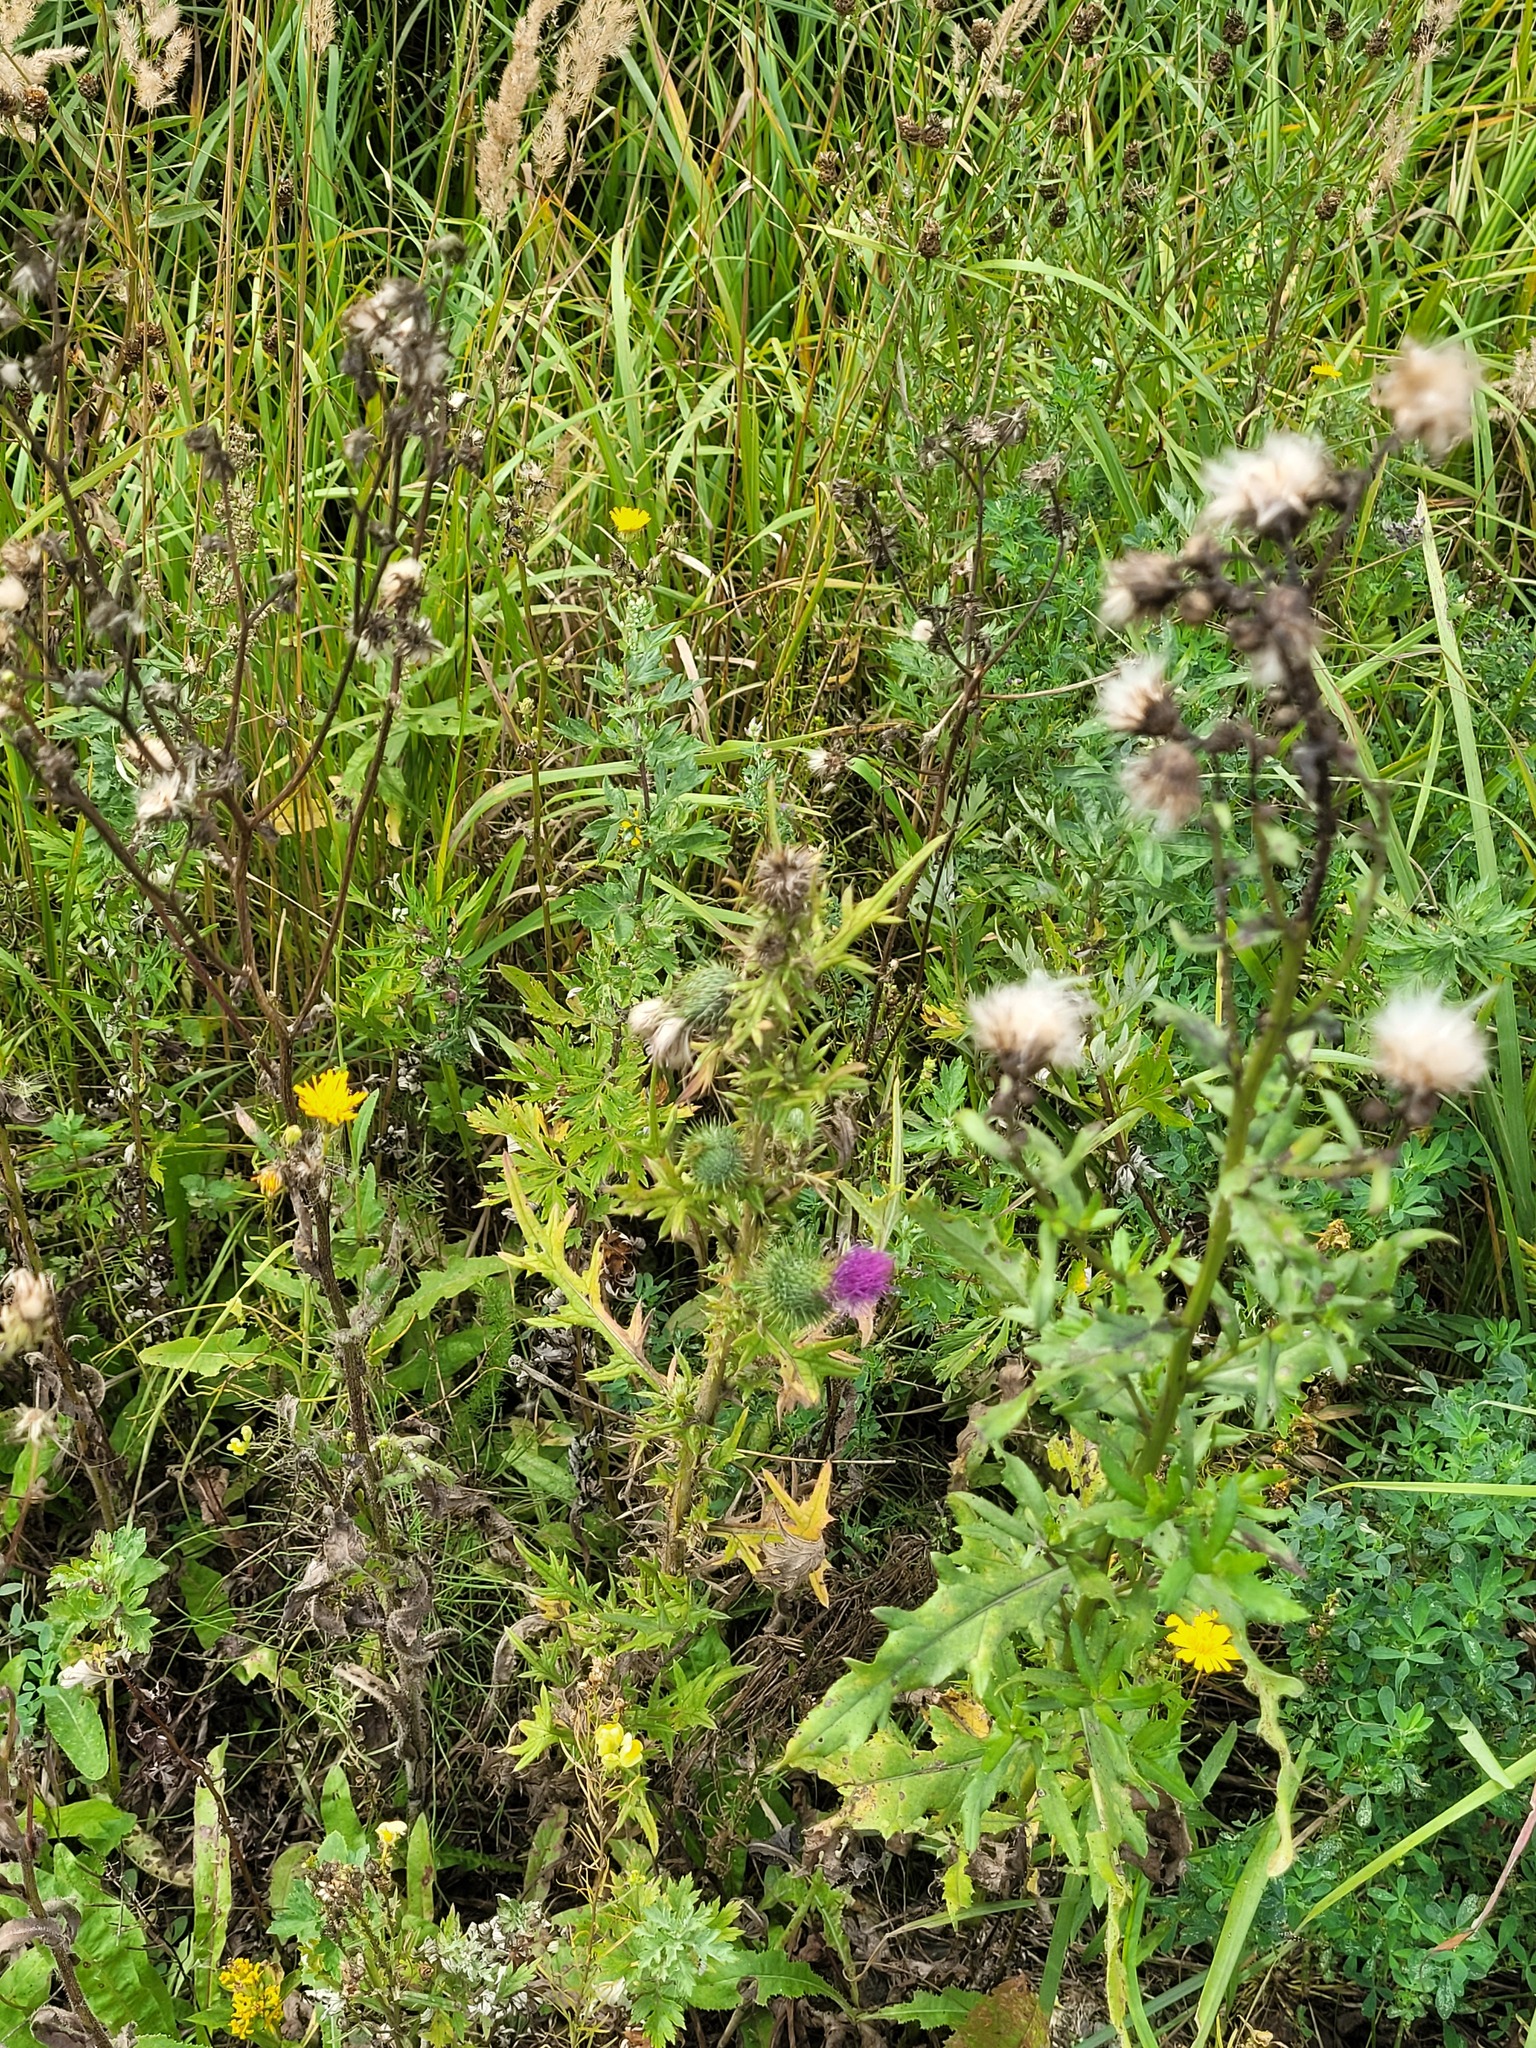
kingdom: Plantae
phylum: Tracheophyta
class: Magnoliopsida
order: Asterales
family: Asteraceae
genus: Cirsium
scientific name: Cirsium vulgare
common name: Bull thistle
